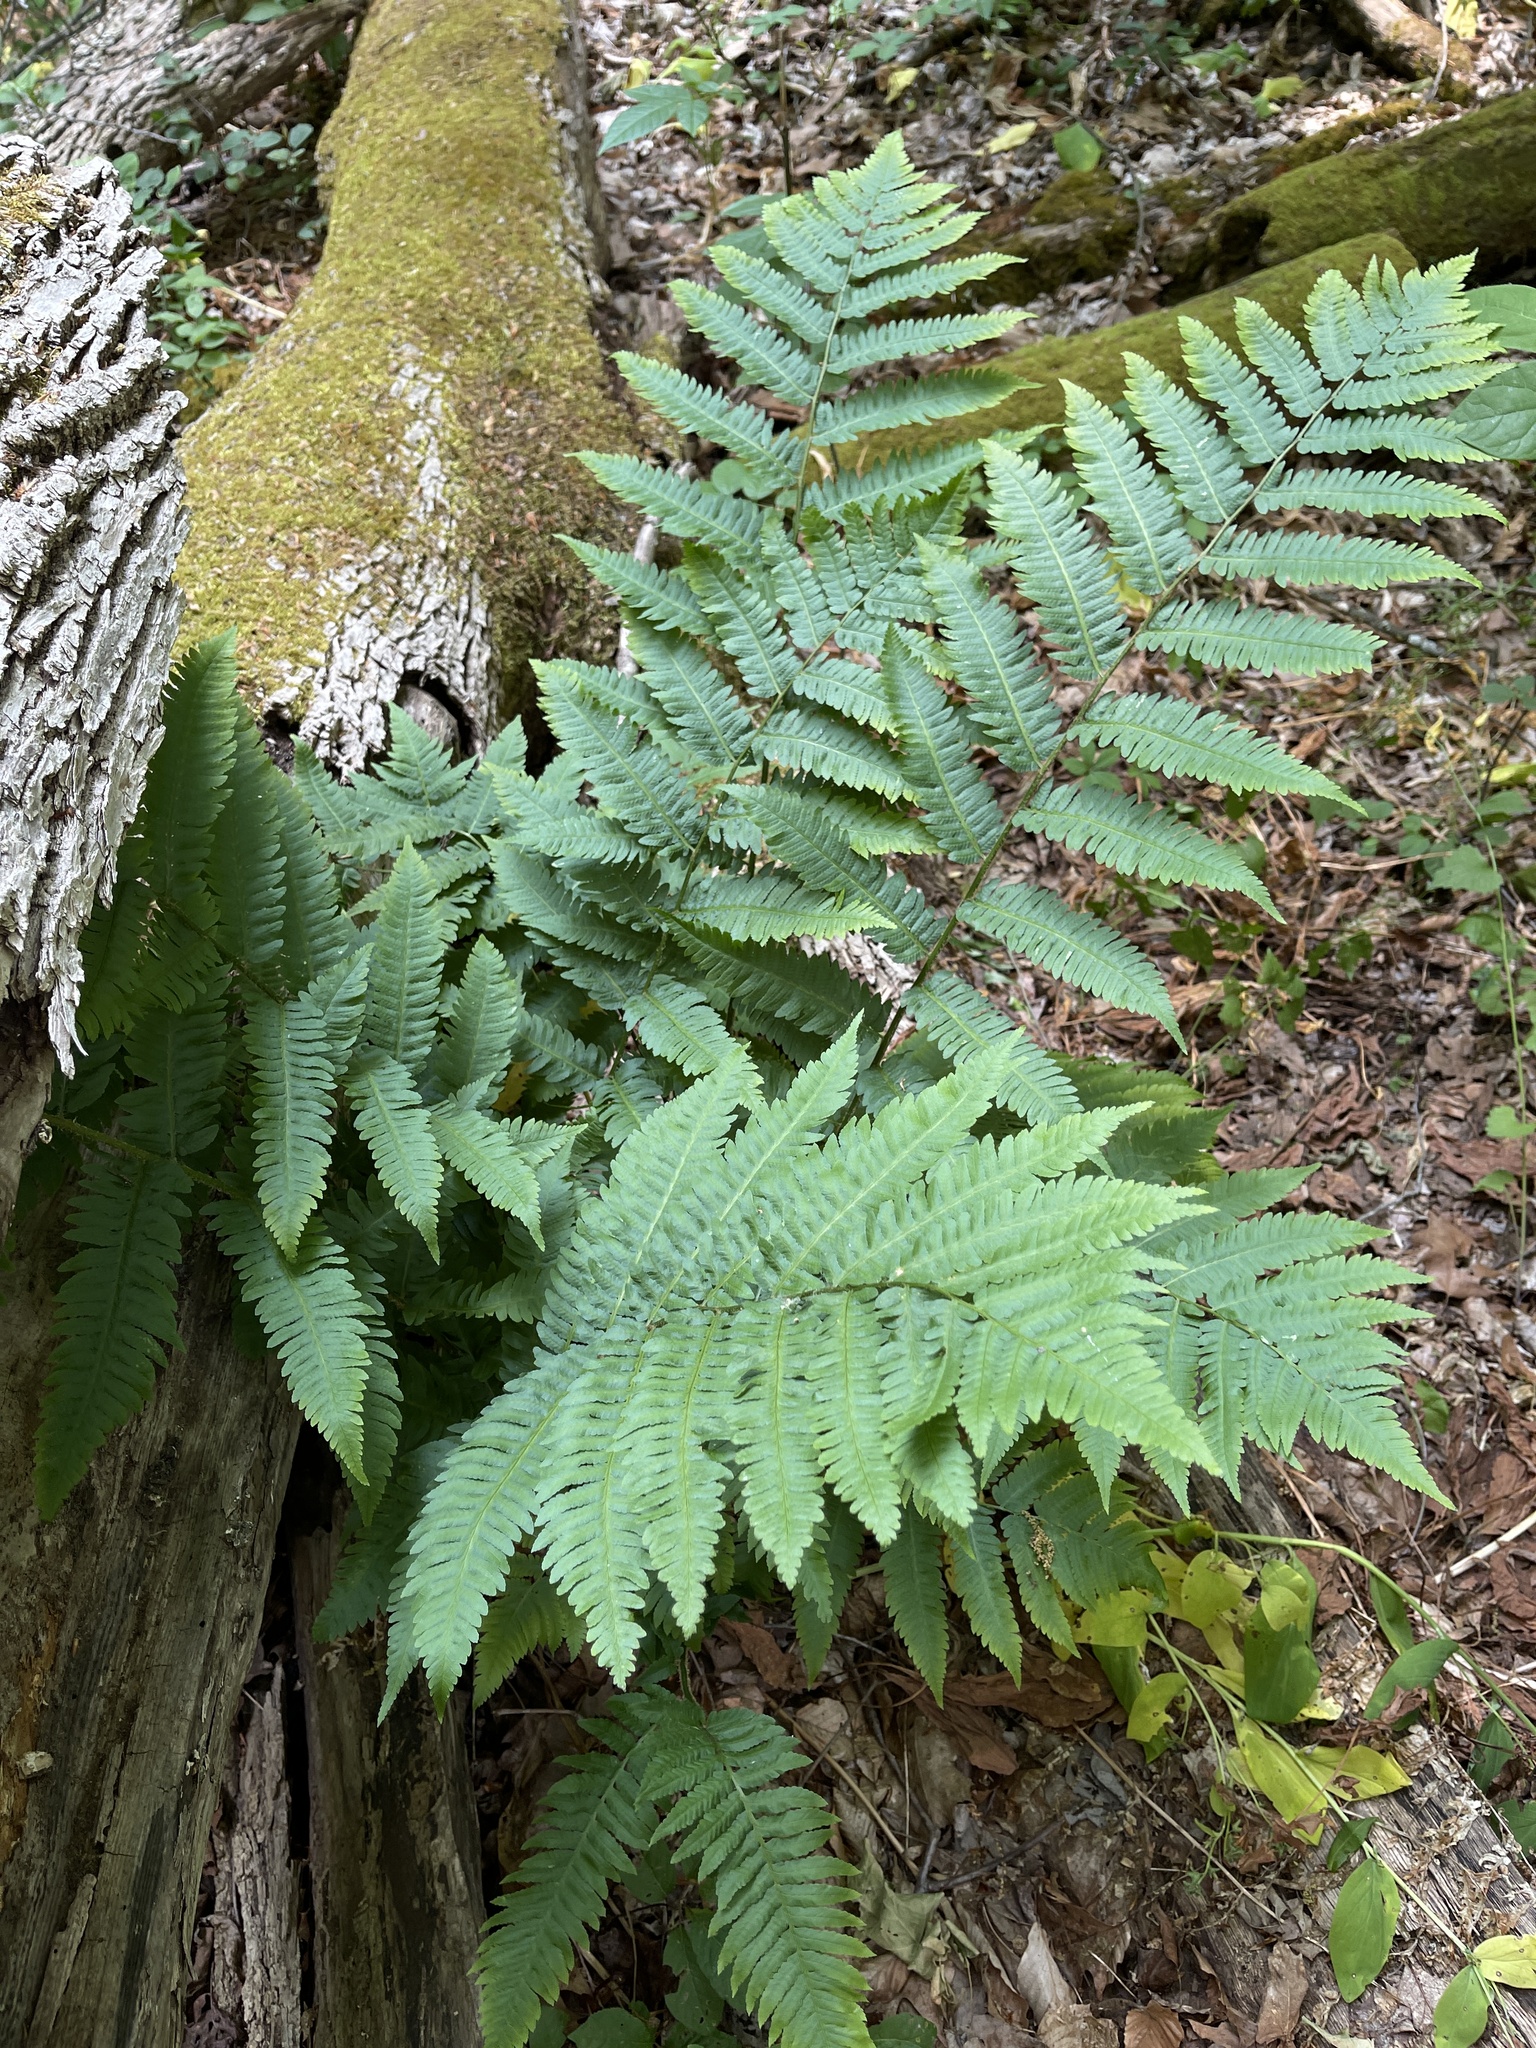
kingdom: Plantae
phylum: Tracheophyta
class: Polypodiopsida
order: Polypodiales
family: Dryopteridaceae
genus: Dryopteris
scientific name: Dryopteris goldieana
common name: Goldie's fern
